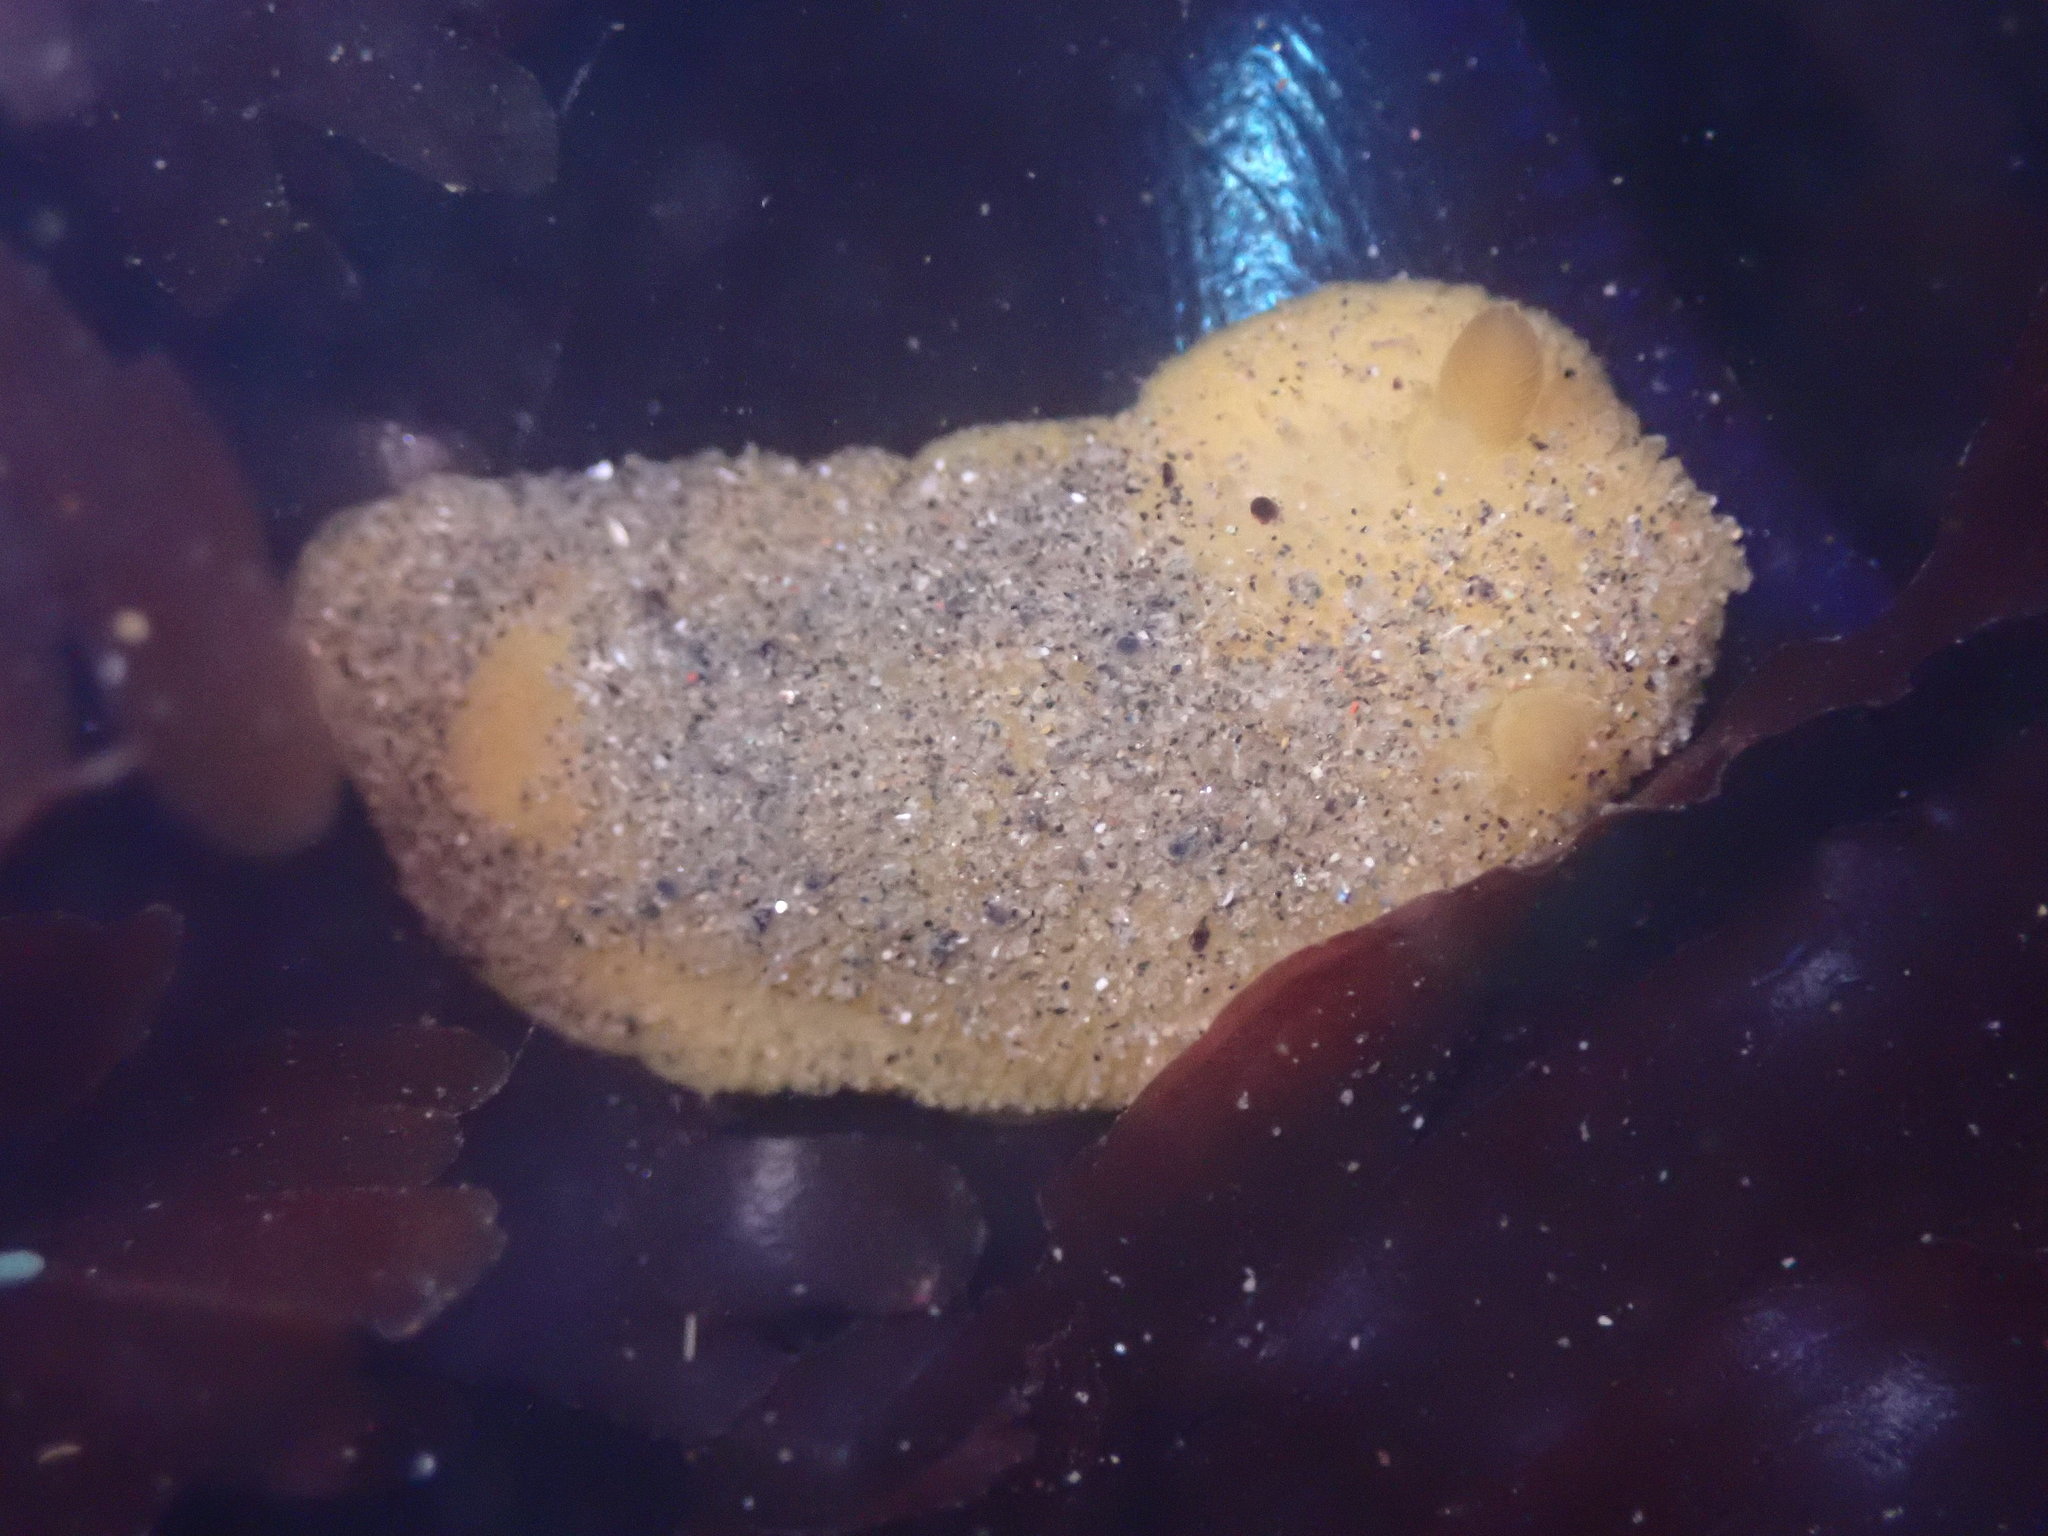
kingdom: Animalia
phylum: Mollusca
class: Gastropoda
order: Nudibranchia
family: Dorididae
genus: Doris
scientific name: Doris montereyensis
